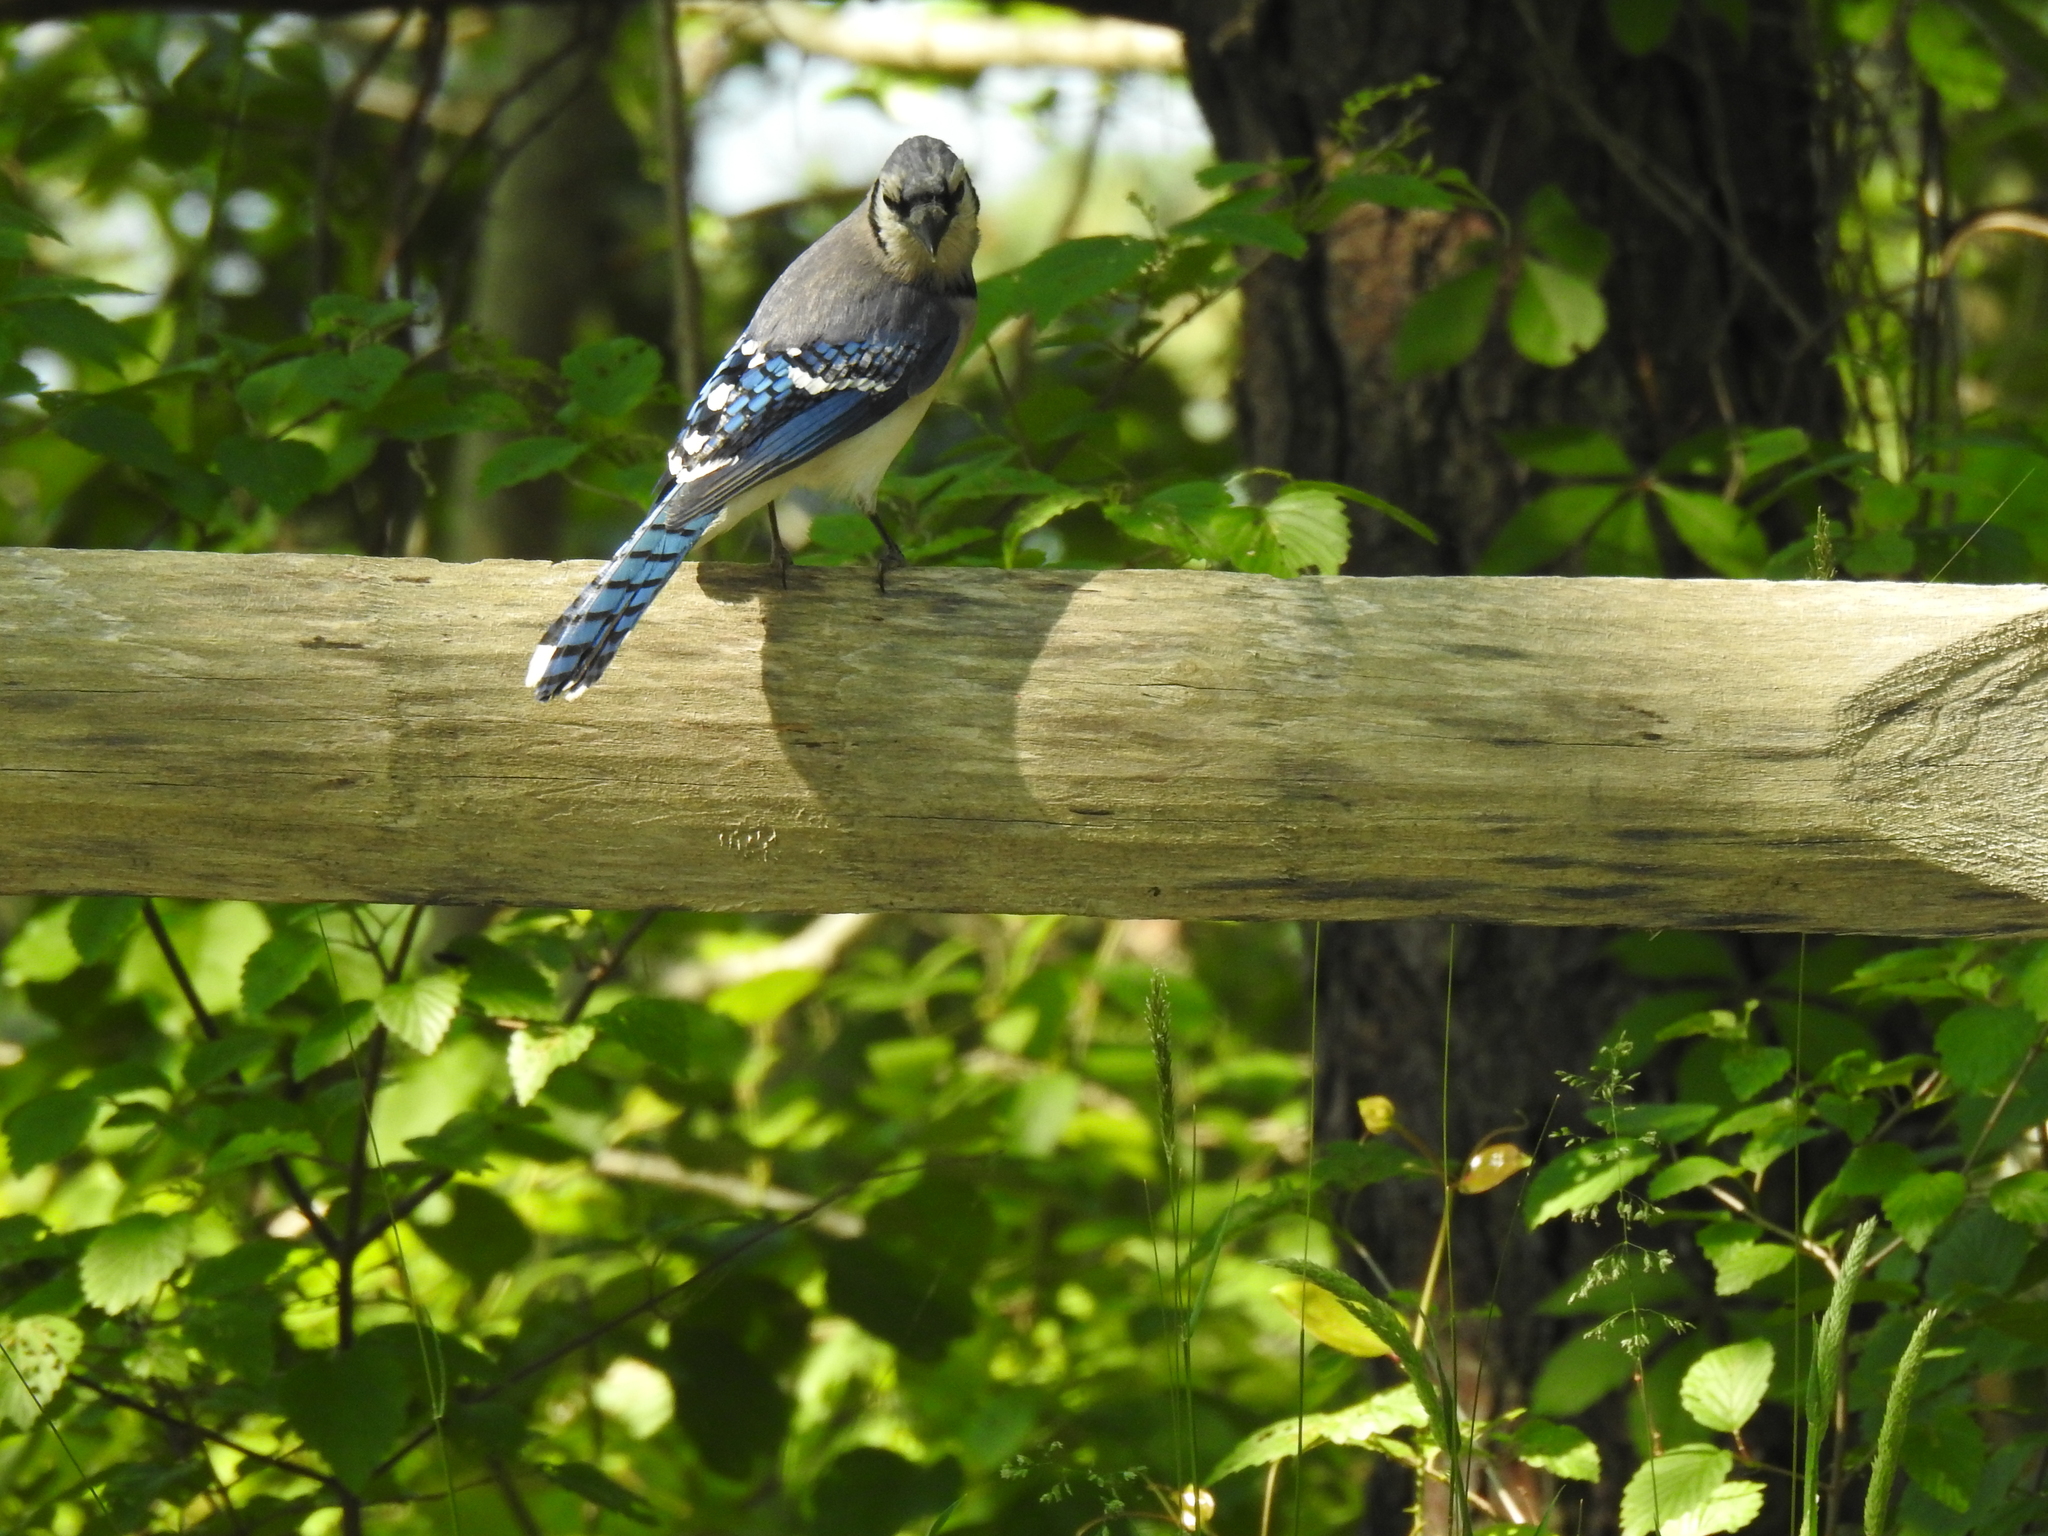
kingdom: Animalia
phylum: Chordata
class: Aves
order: Passeriformes
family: Corvidae
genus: Cyanocitta
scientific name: Cyanocitta cristata
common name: Blue jay
